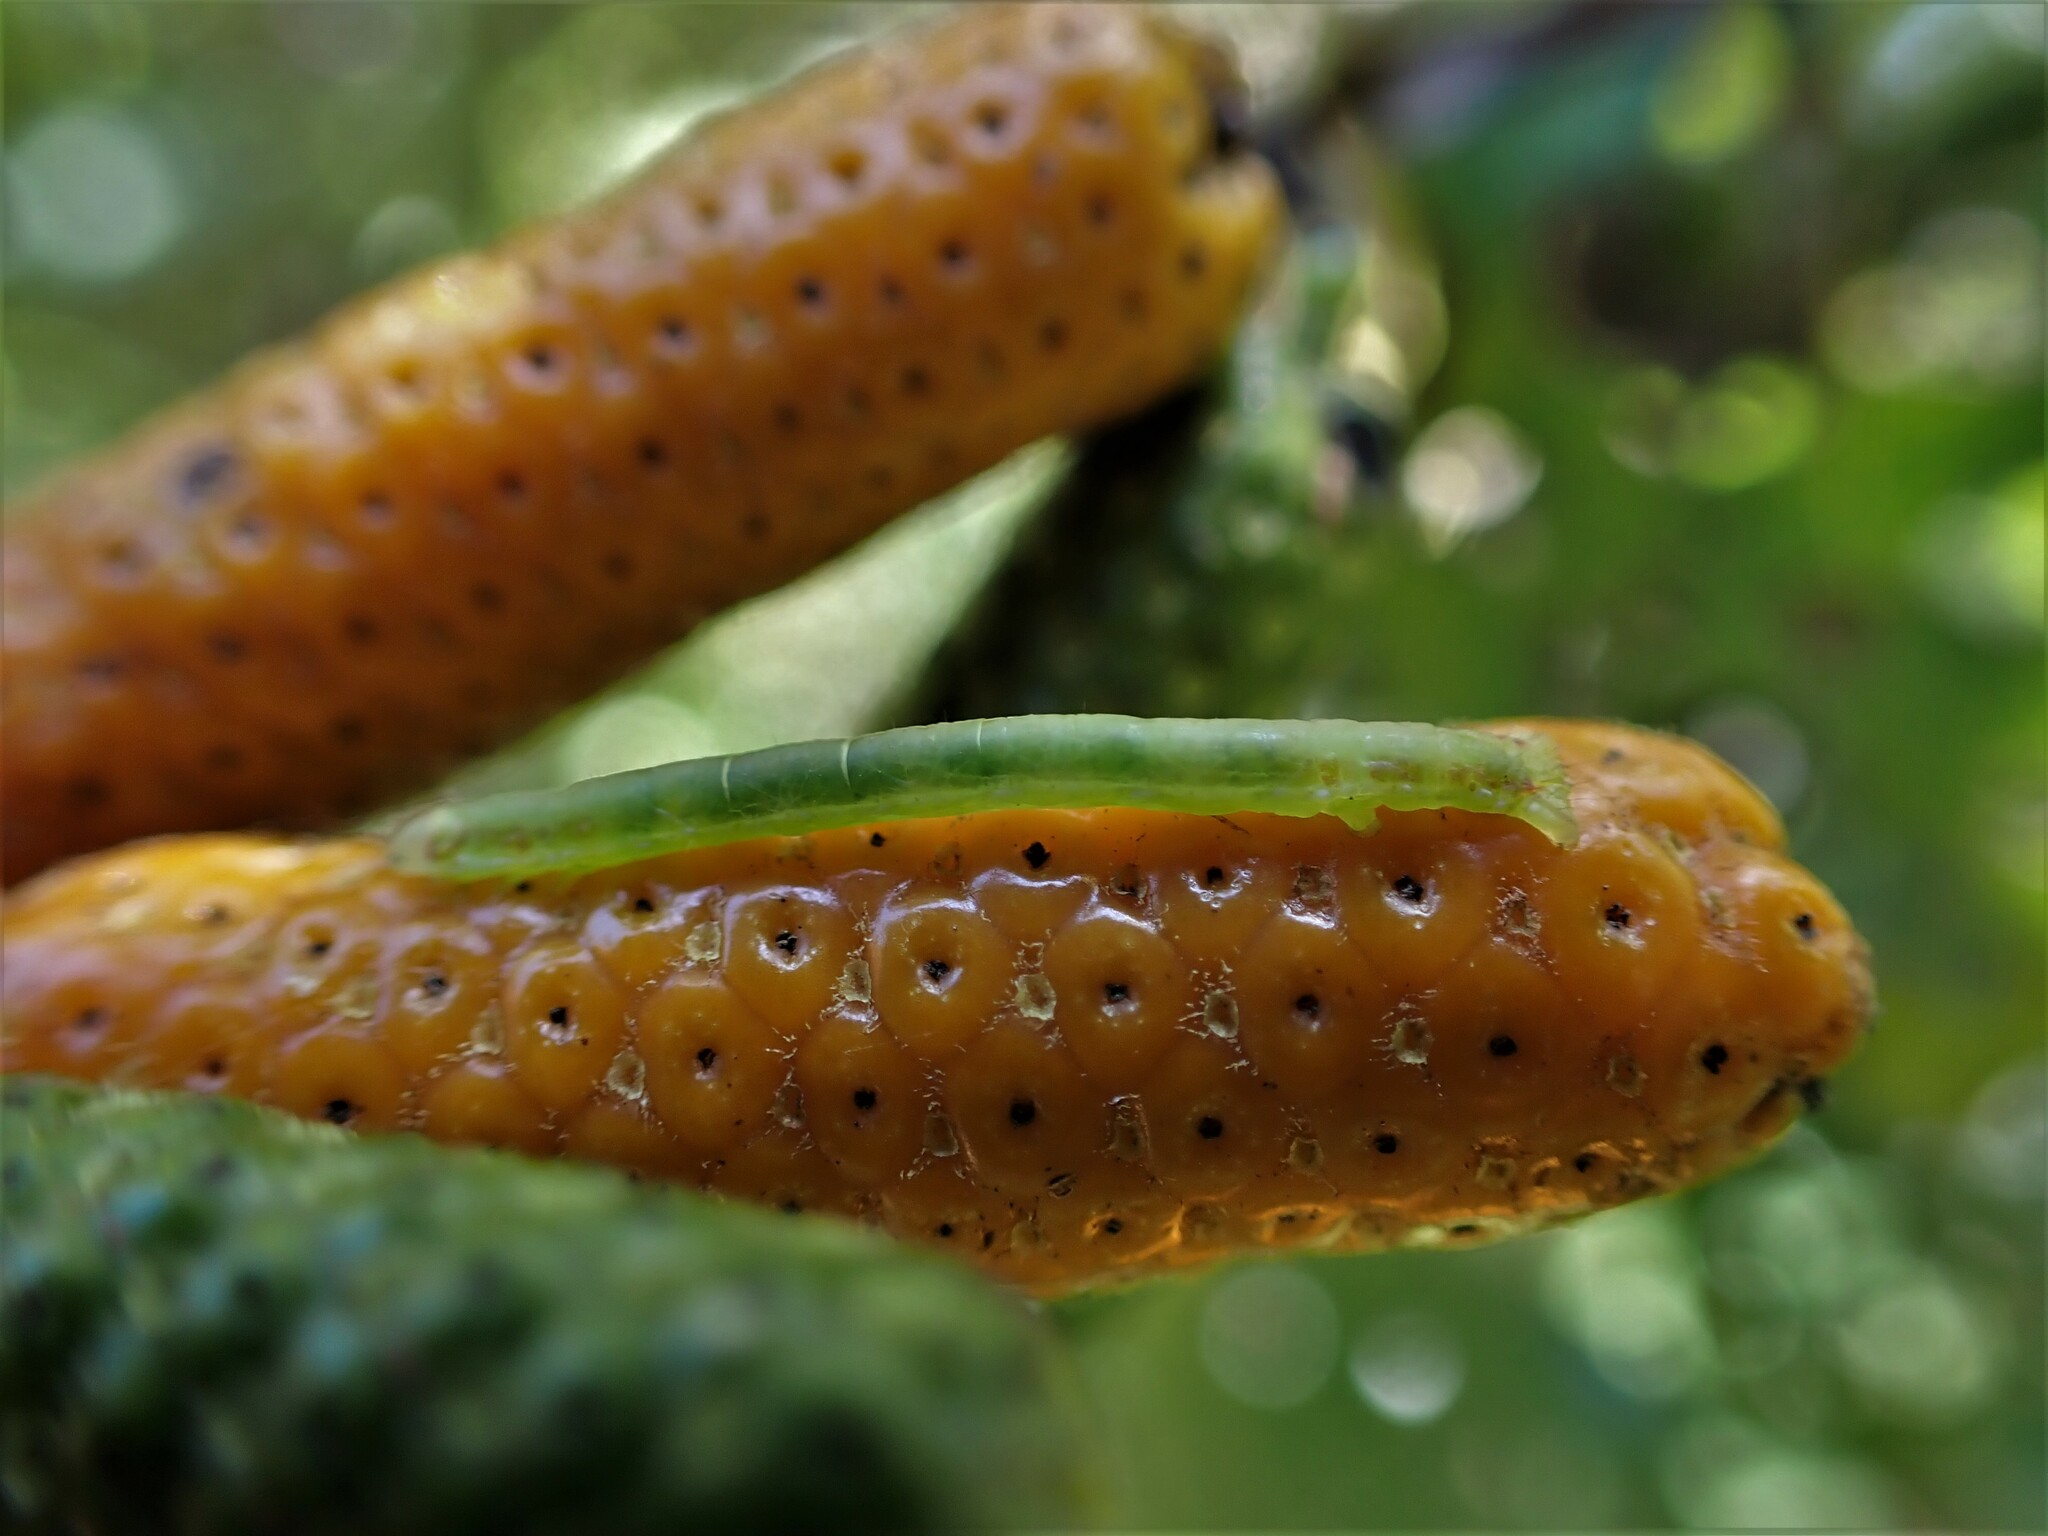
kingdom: Animalia
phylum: Arthropoda
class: Insecta
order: Lepidoptera
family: Geometridae
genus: Cleora
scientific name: Cleora scriptaria
